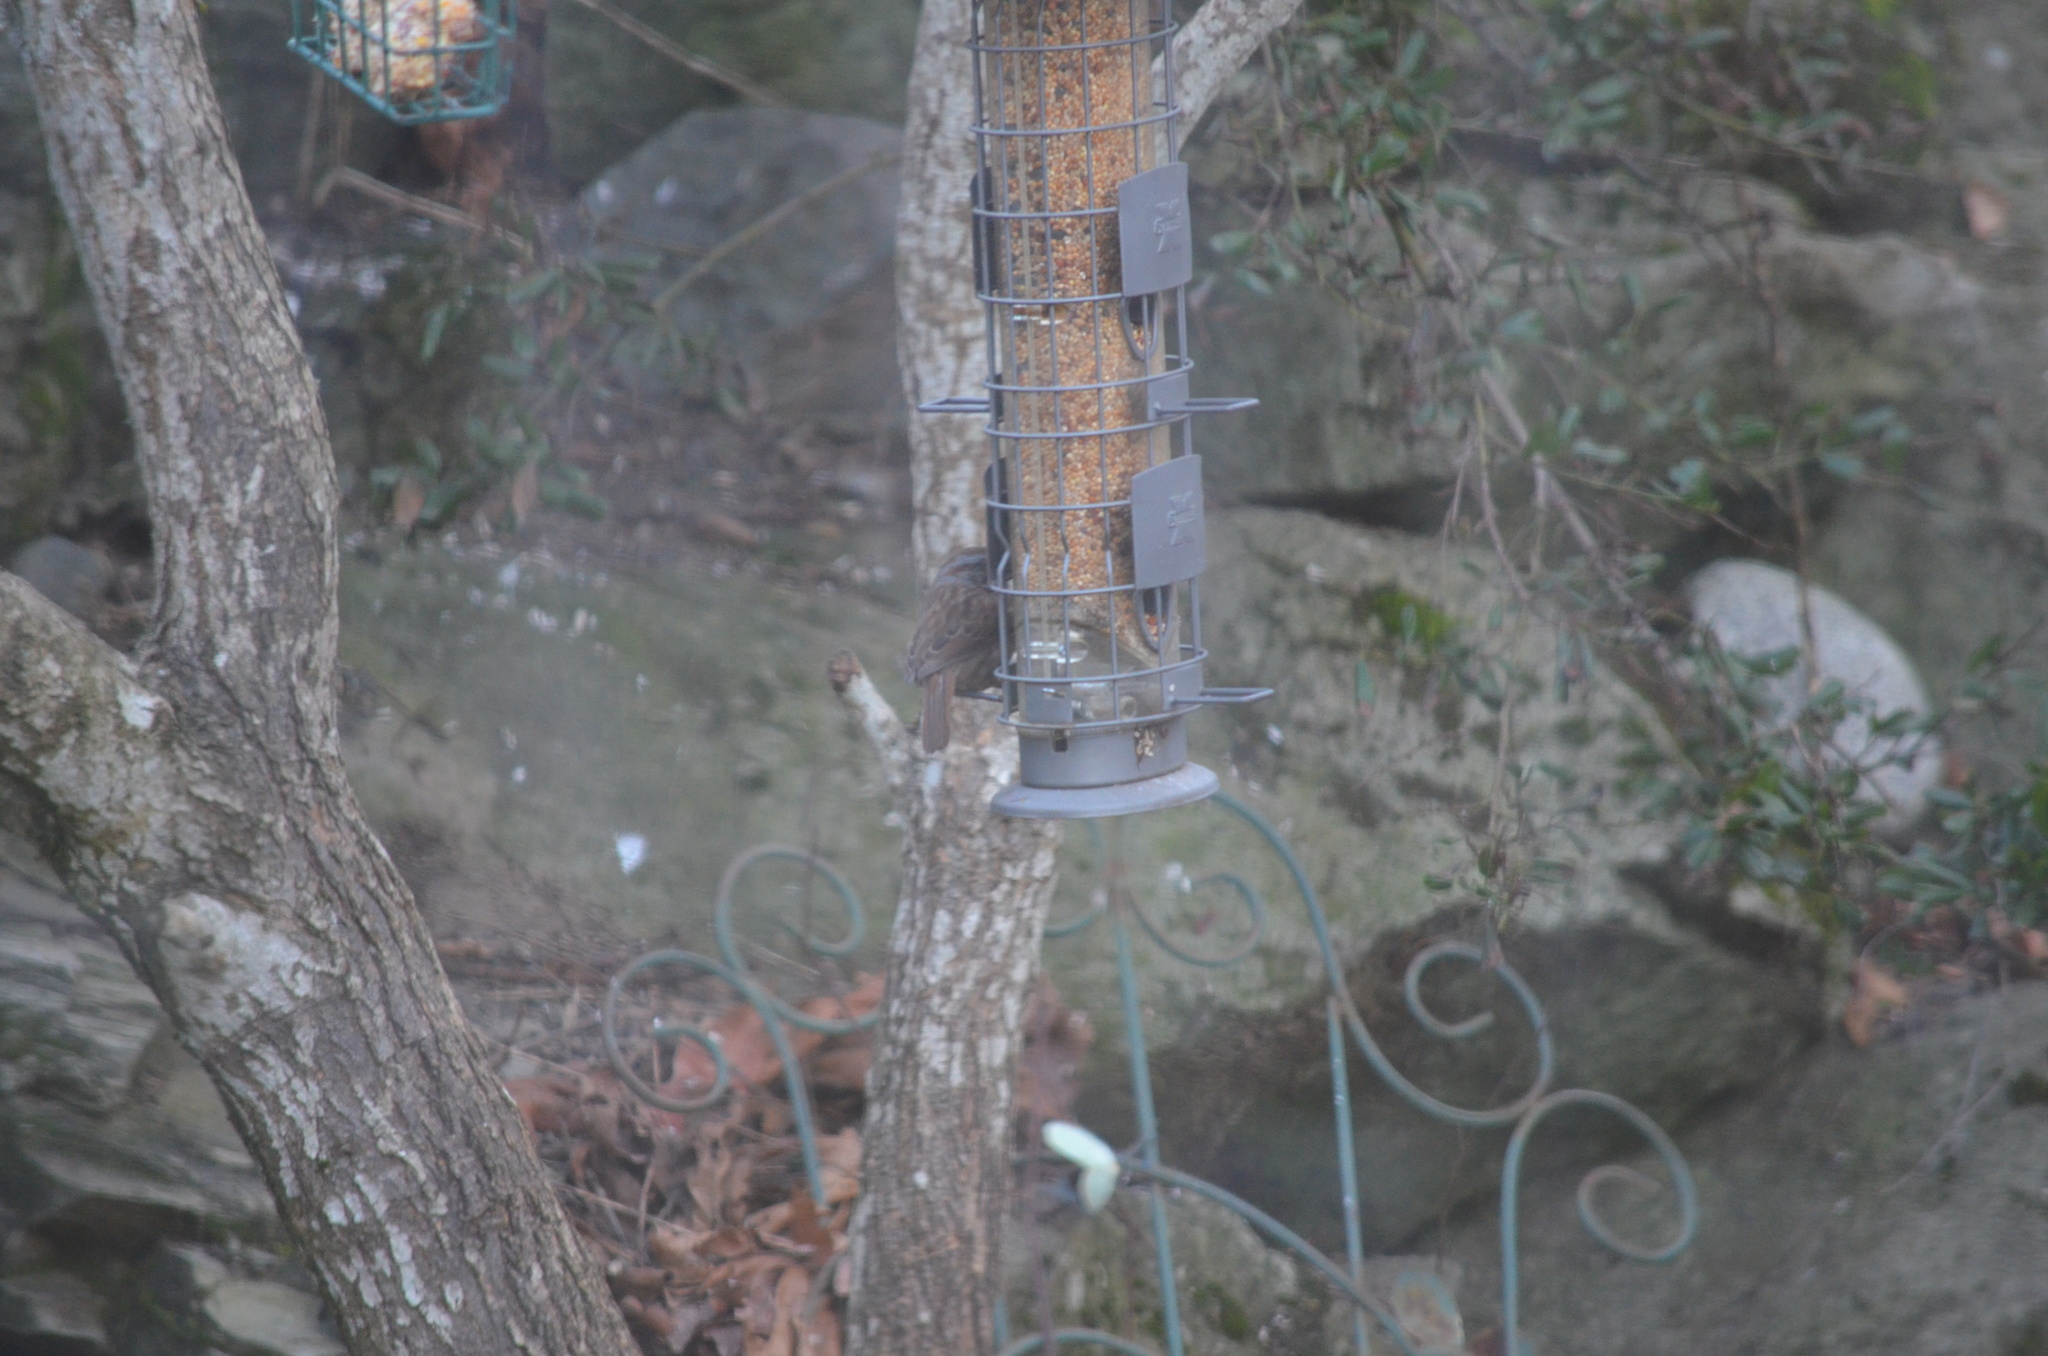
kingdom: Animalia
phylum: Chordata
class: Aves
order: Passeriformes
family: Passerellidae
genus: Melospiza
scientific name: Melospiza melodia
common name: Song sparrow
